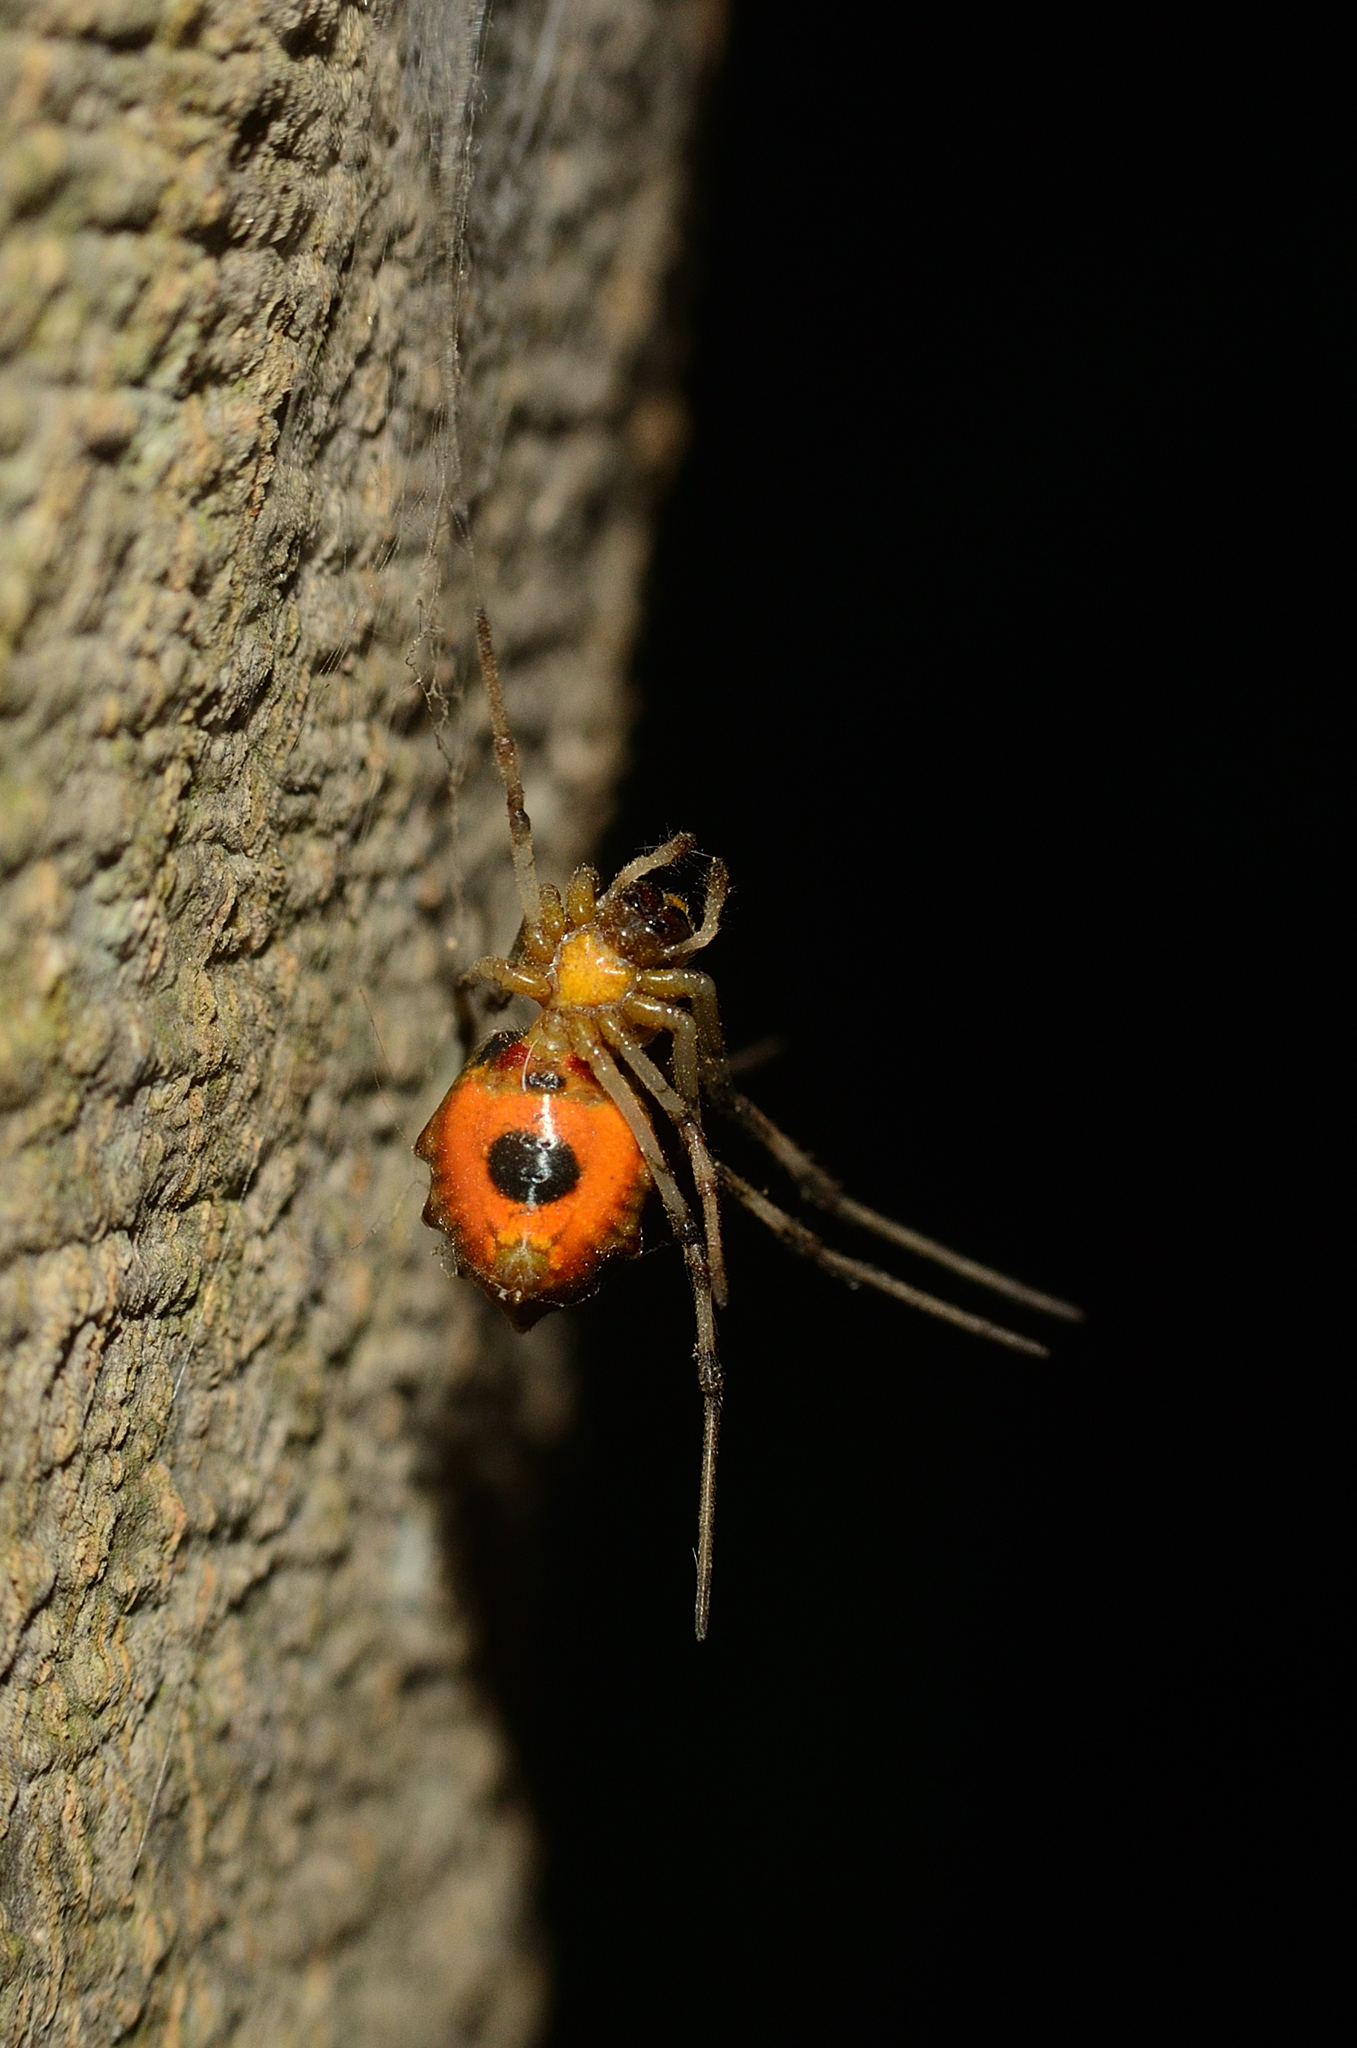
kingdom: Animalia
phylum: Arthropoda
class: Arachnida
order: Araneae
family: Araneidae
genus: Herennia
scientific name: Herennia multipuncta
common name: Spotted coin spider
